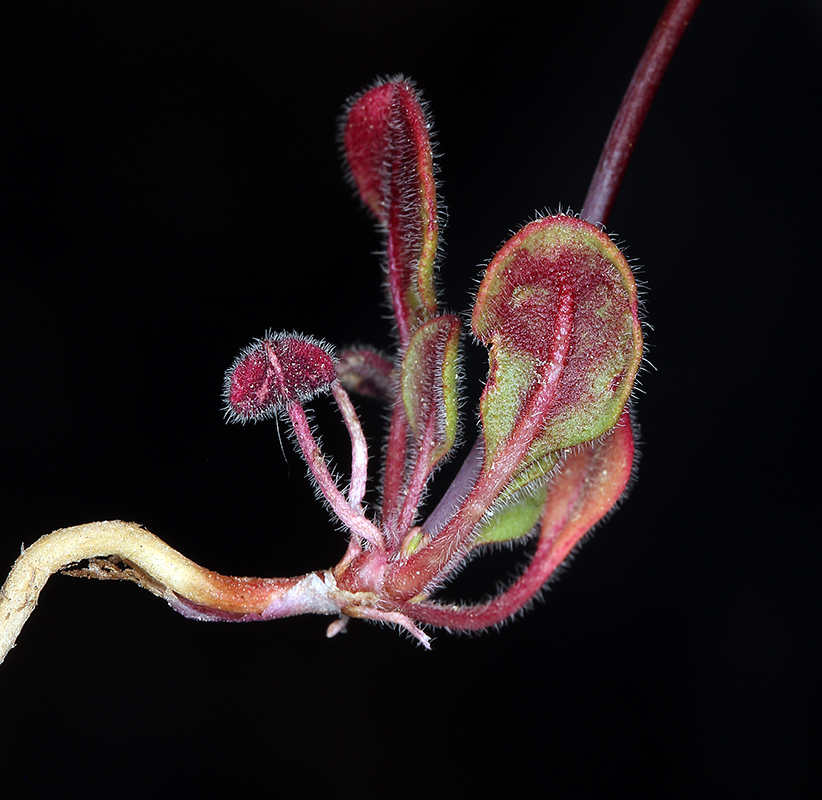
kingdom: Plantae
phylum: Tracheophyta
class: Magnoliopsida
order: Caryophyllales
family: Polygonaceae
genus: Eriogonum
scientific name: Eriogonum esmeraldense
